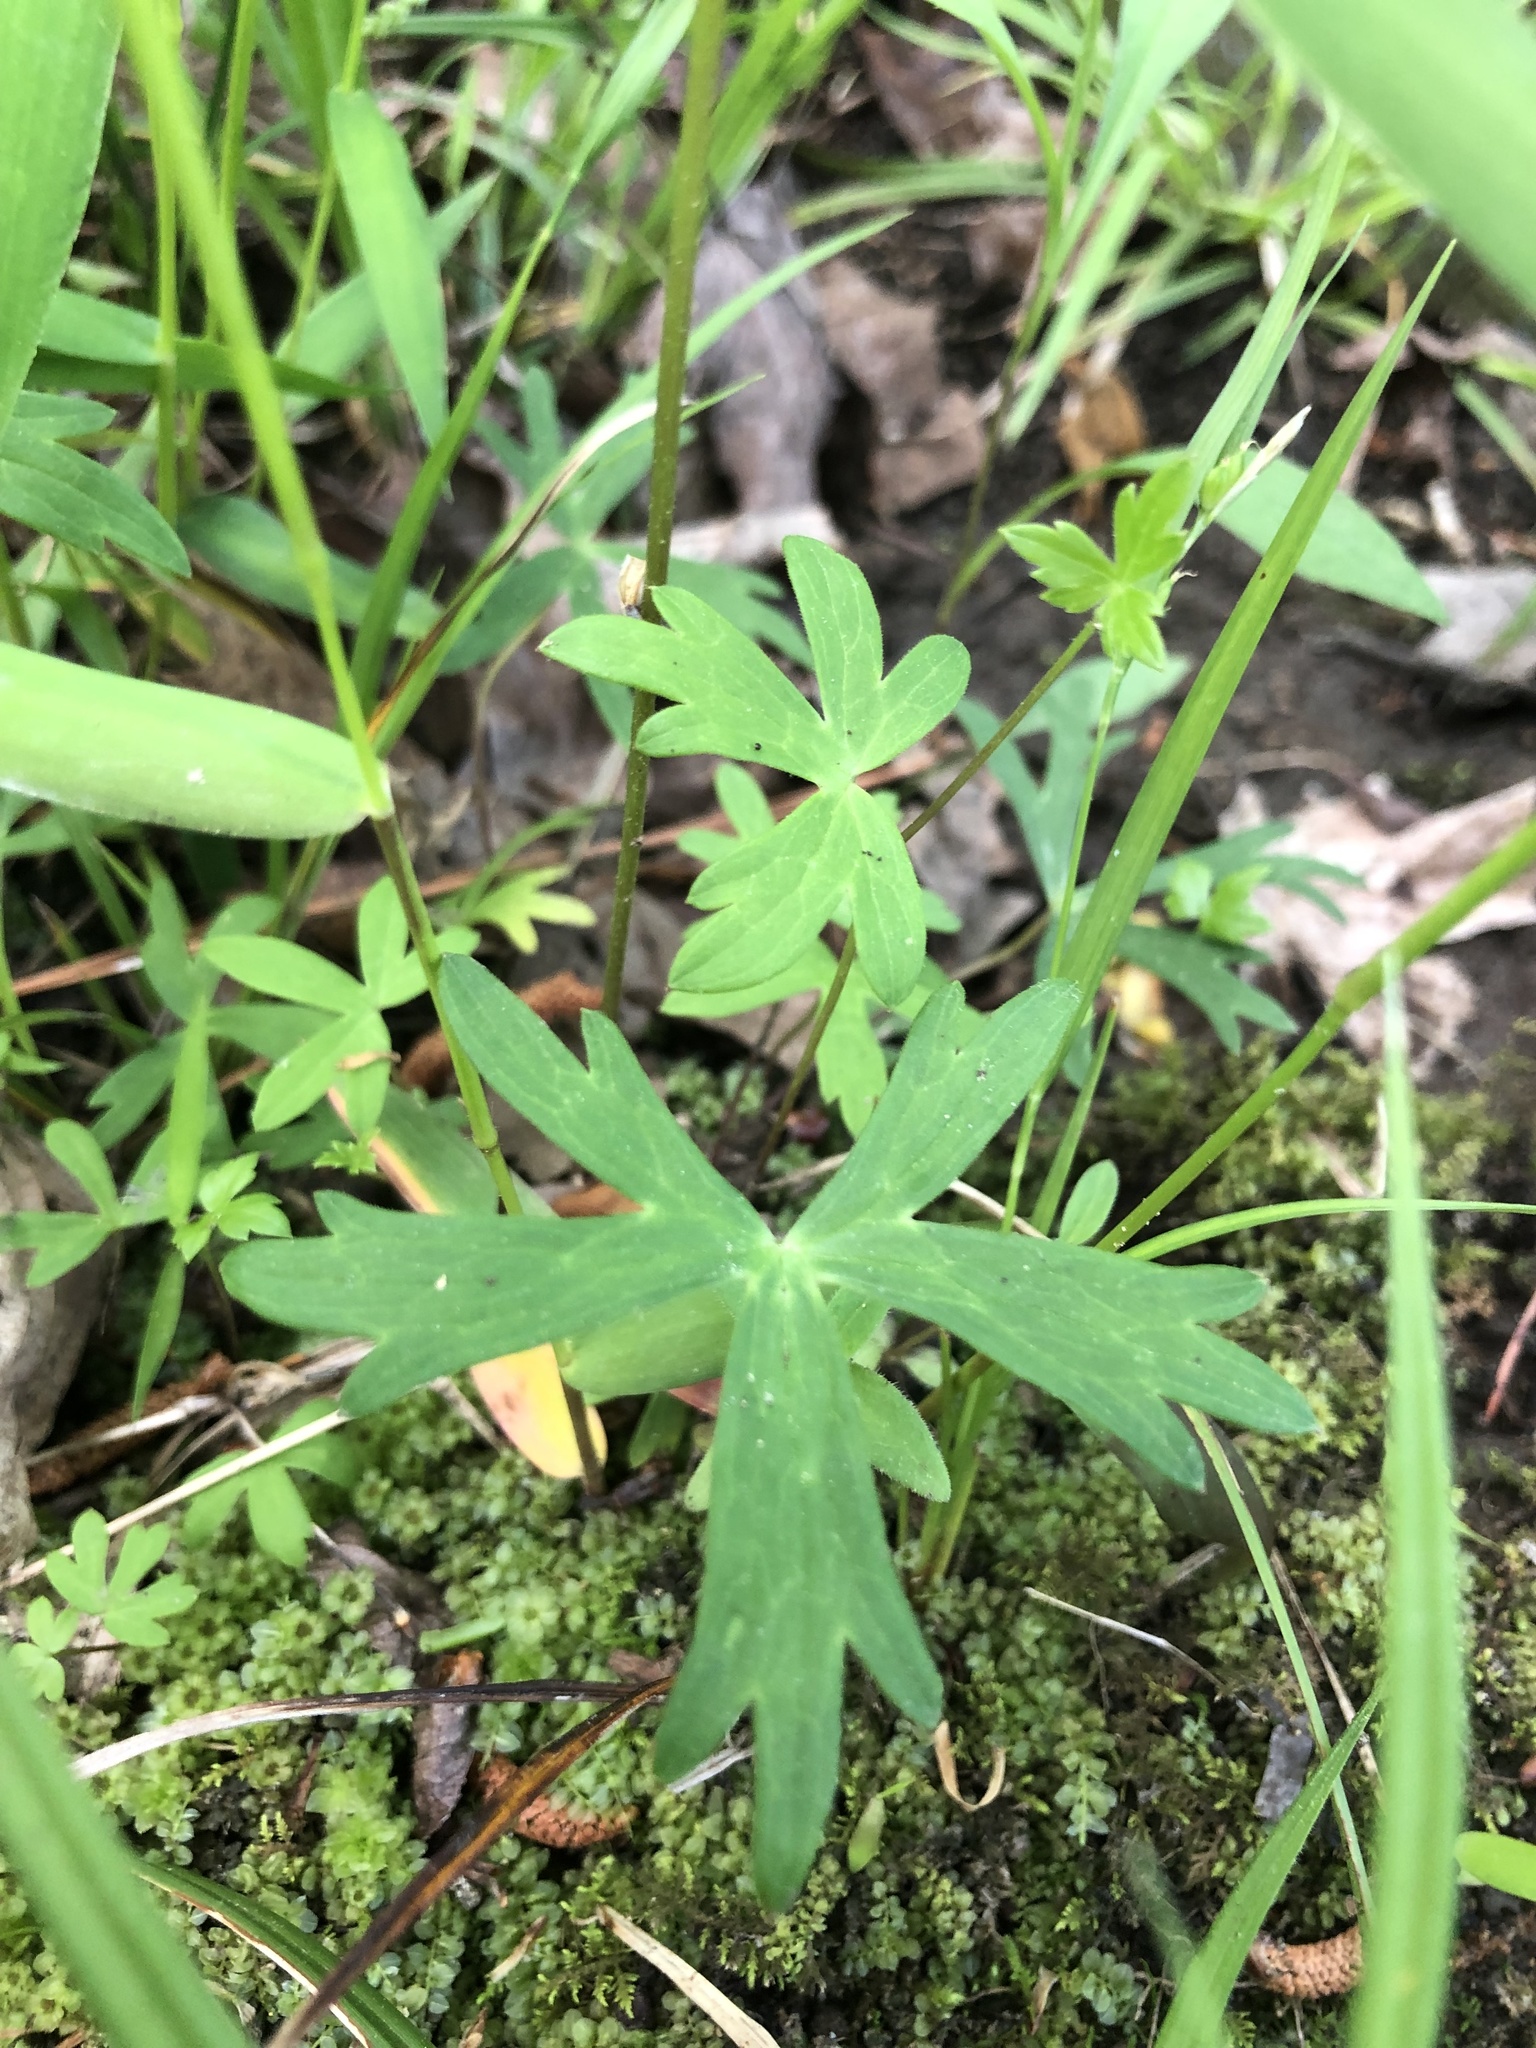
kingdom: Plantae
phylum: Tracheophyta
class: Magnoliopsida
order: Ranunculales
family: Ranunculaceae
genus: Aconitum
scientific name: Aconitum uncinatum
